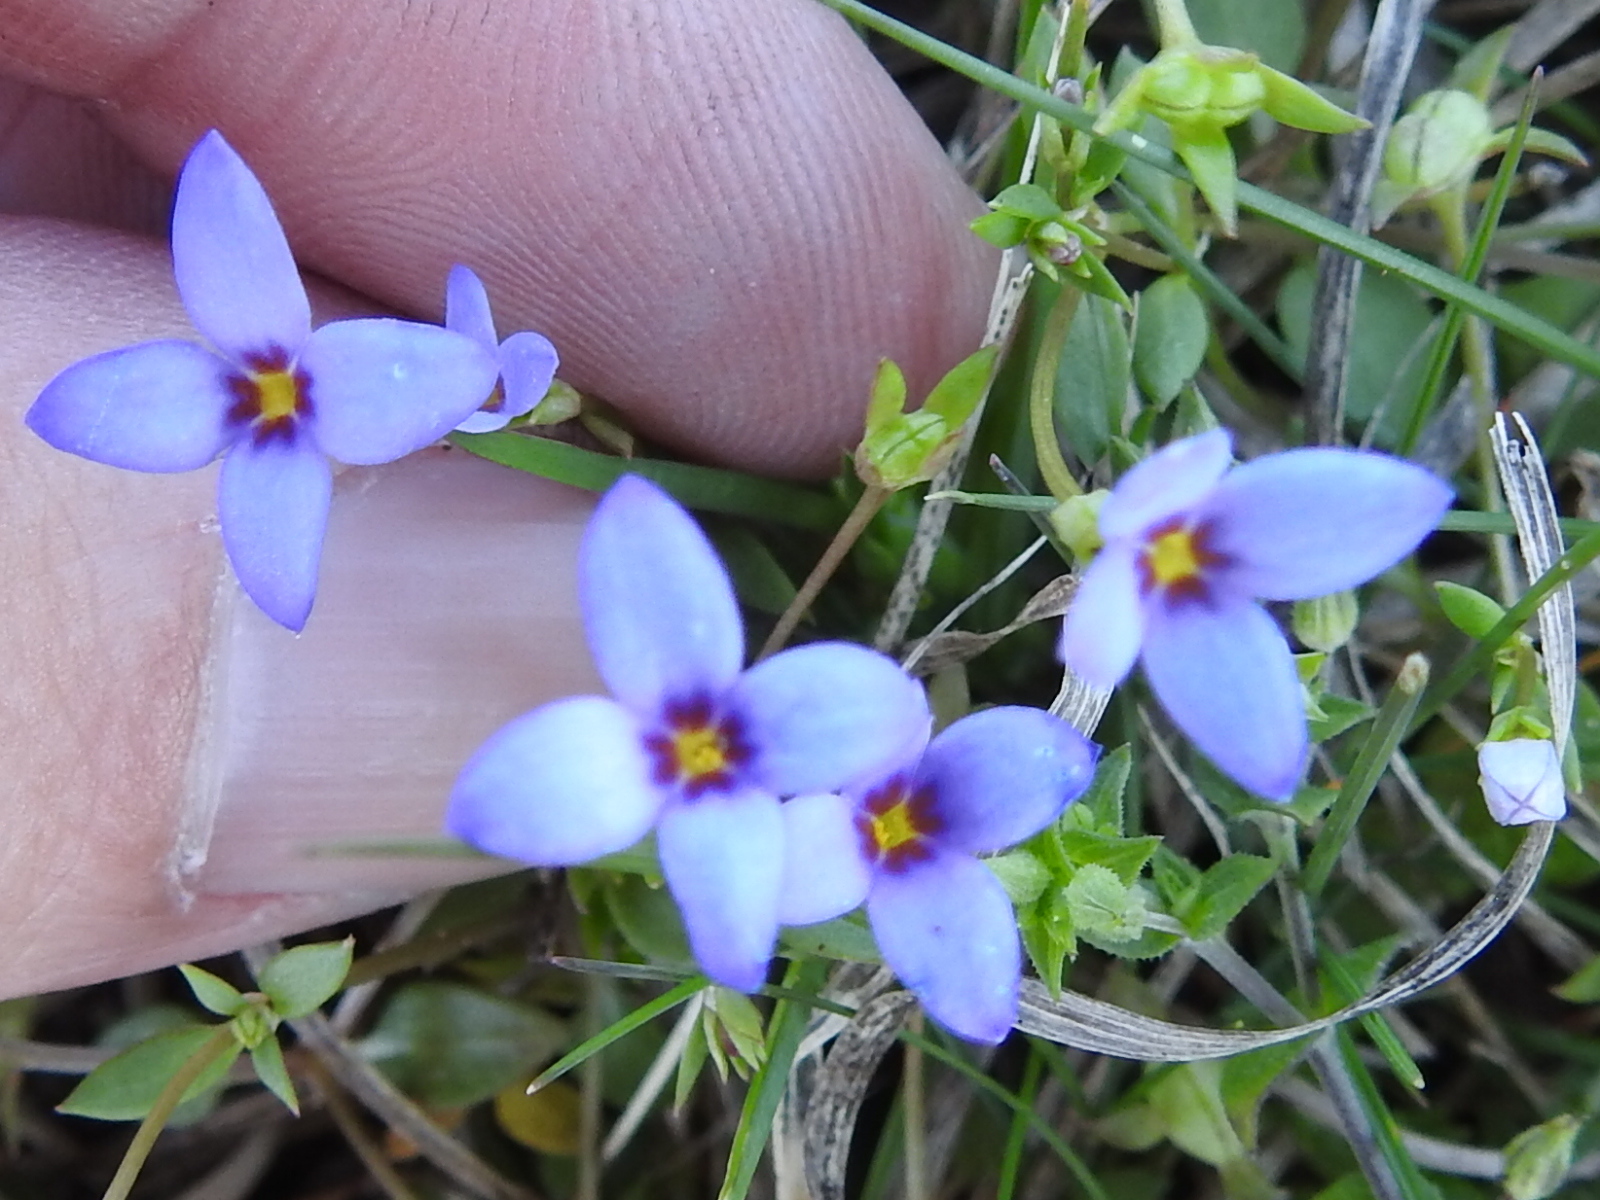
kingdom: Plantae
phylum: Tracheophyta
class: Magnoliopsida
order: Gentianales
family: Rubiaceae
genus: Houstonia
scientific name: Houstonia pusilla
